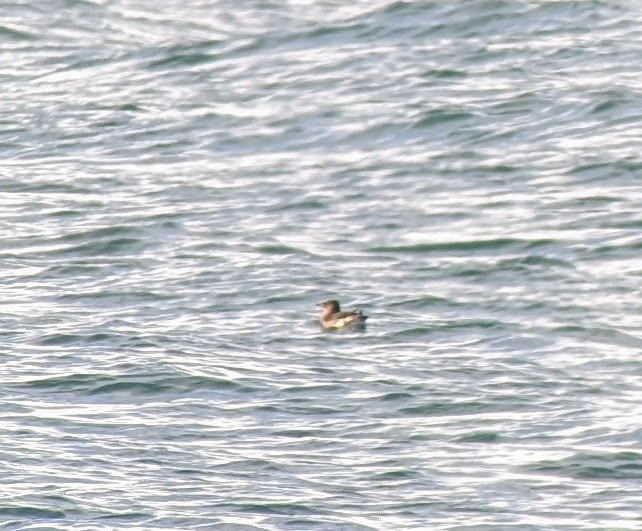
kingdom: Animalia
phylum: Chordata
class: Aves
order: Charadriiformes
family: Alcidae
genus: Cerorhinca
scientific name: Cerorhinca monocerata
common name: Rhinoceros auklet
